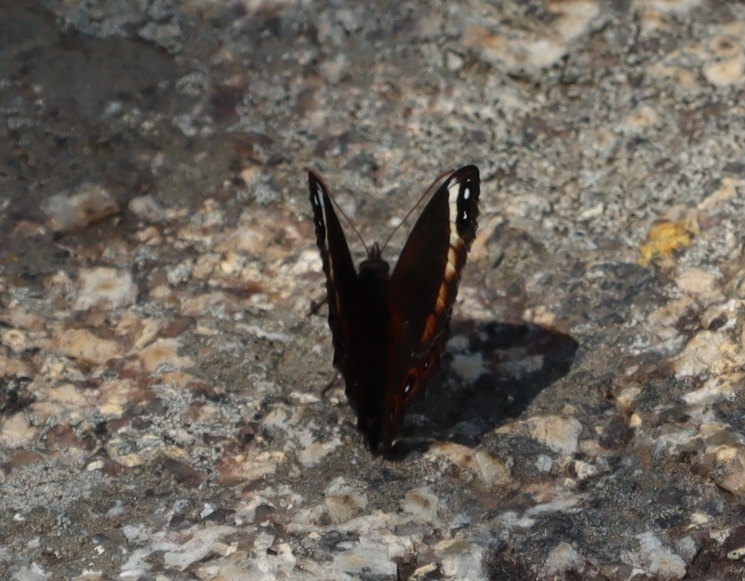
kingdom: Animalia
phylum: Arthropoda
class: Insecta
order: Lepidoptera
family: Nymphalidae
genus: Junonia
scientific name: Junonia archesia
